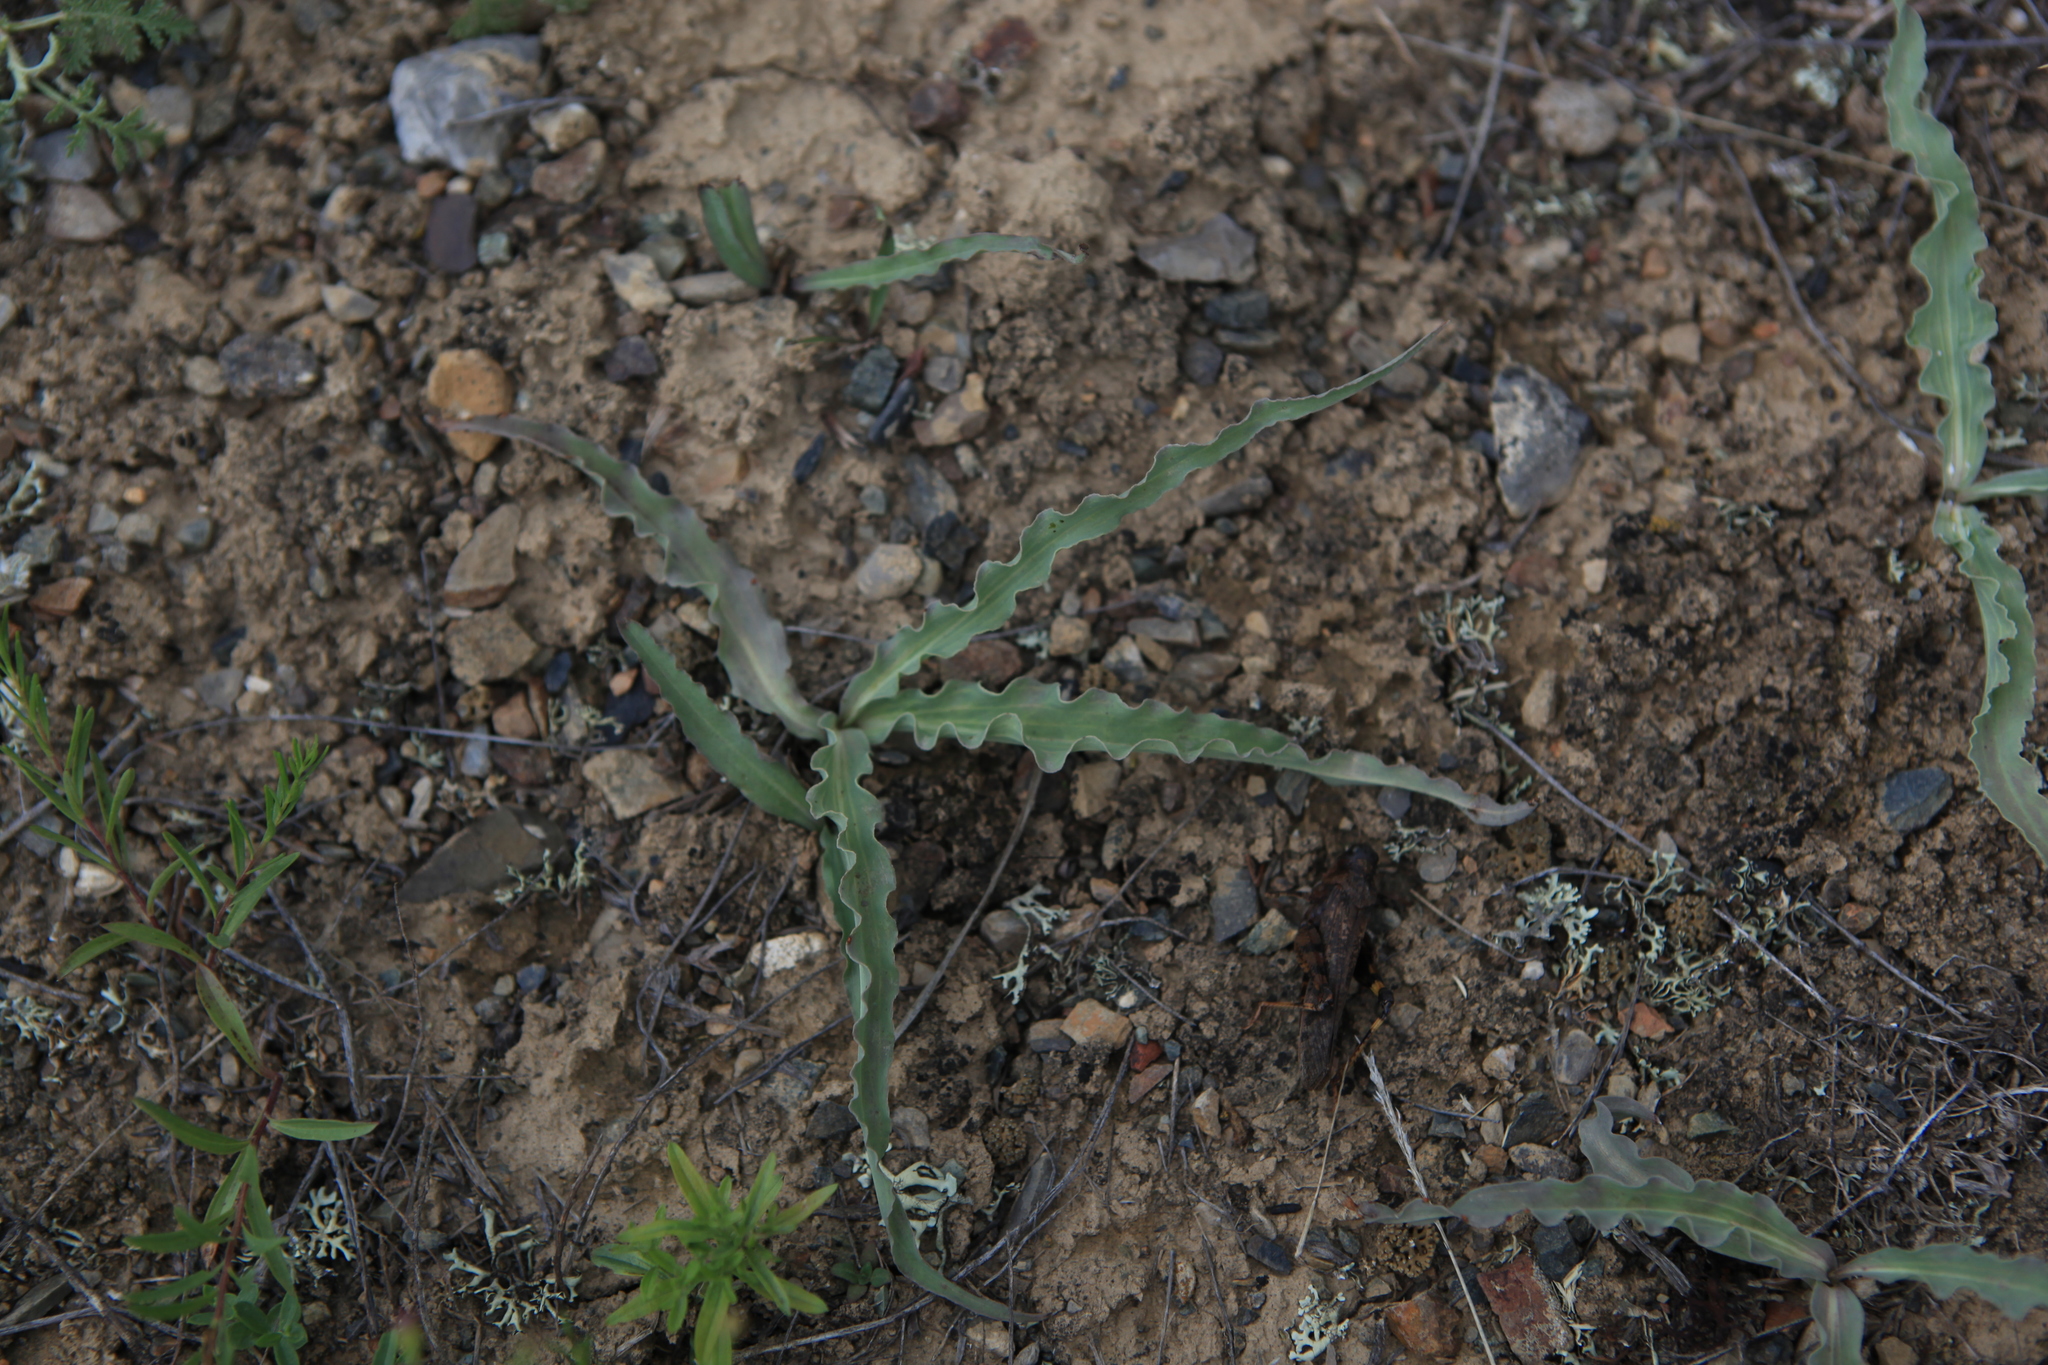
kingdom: Plantae
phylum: Tracheophyta
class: Magnoliopsida
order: Asterales
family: Asteraceae
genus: Takhtajaniantha
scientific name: Takhtajaniantha austriaca
